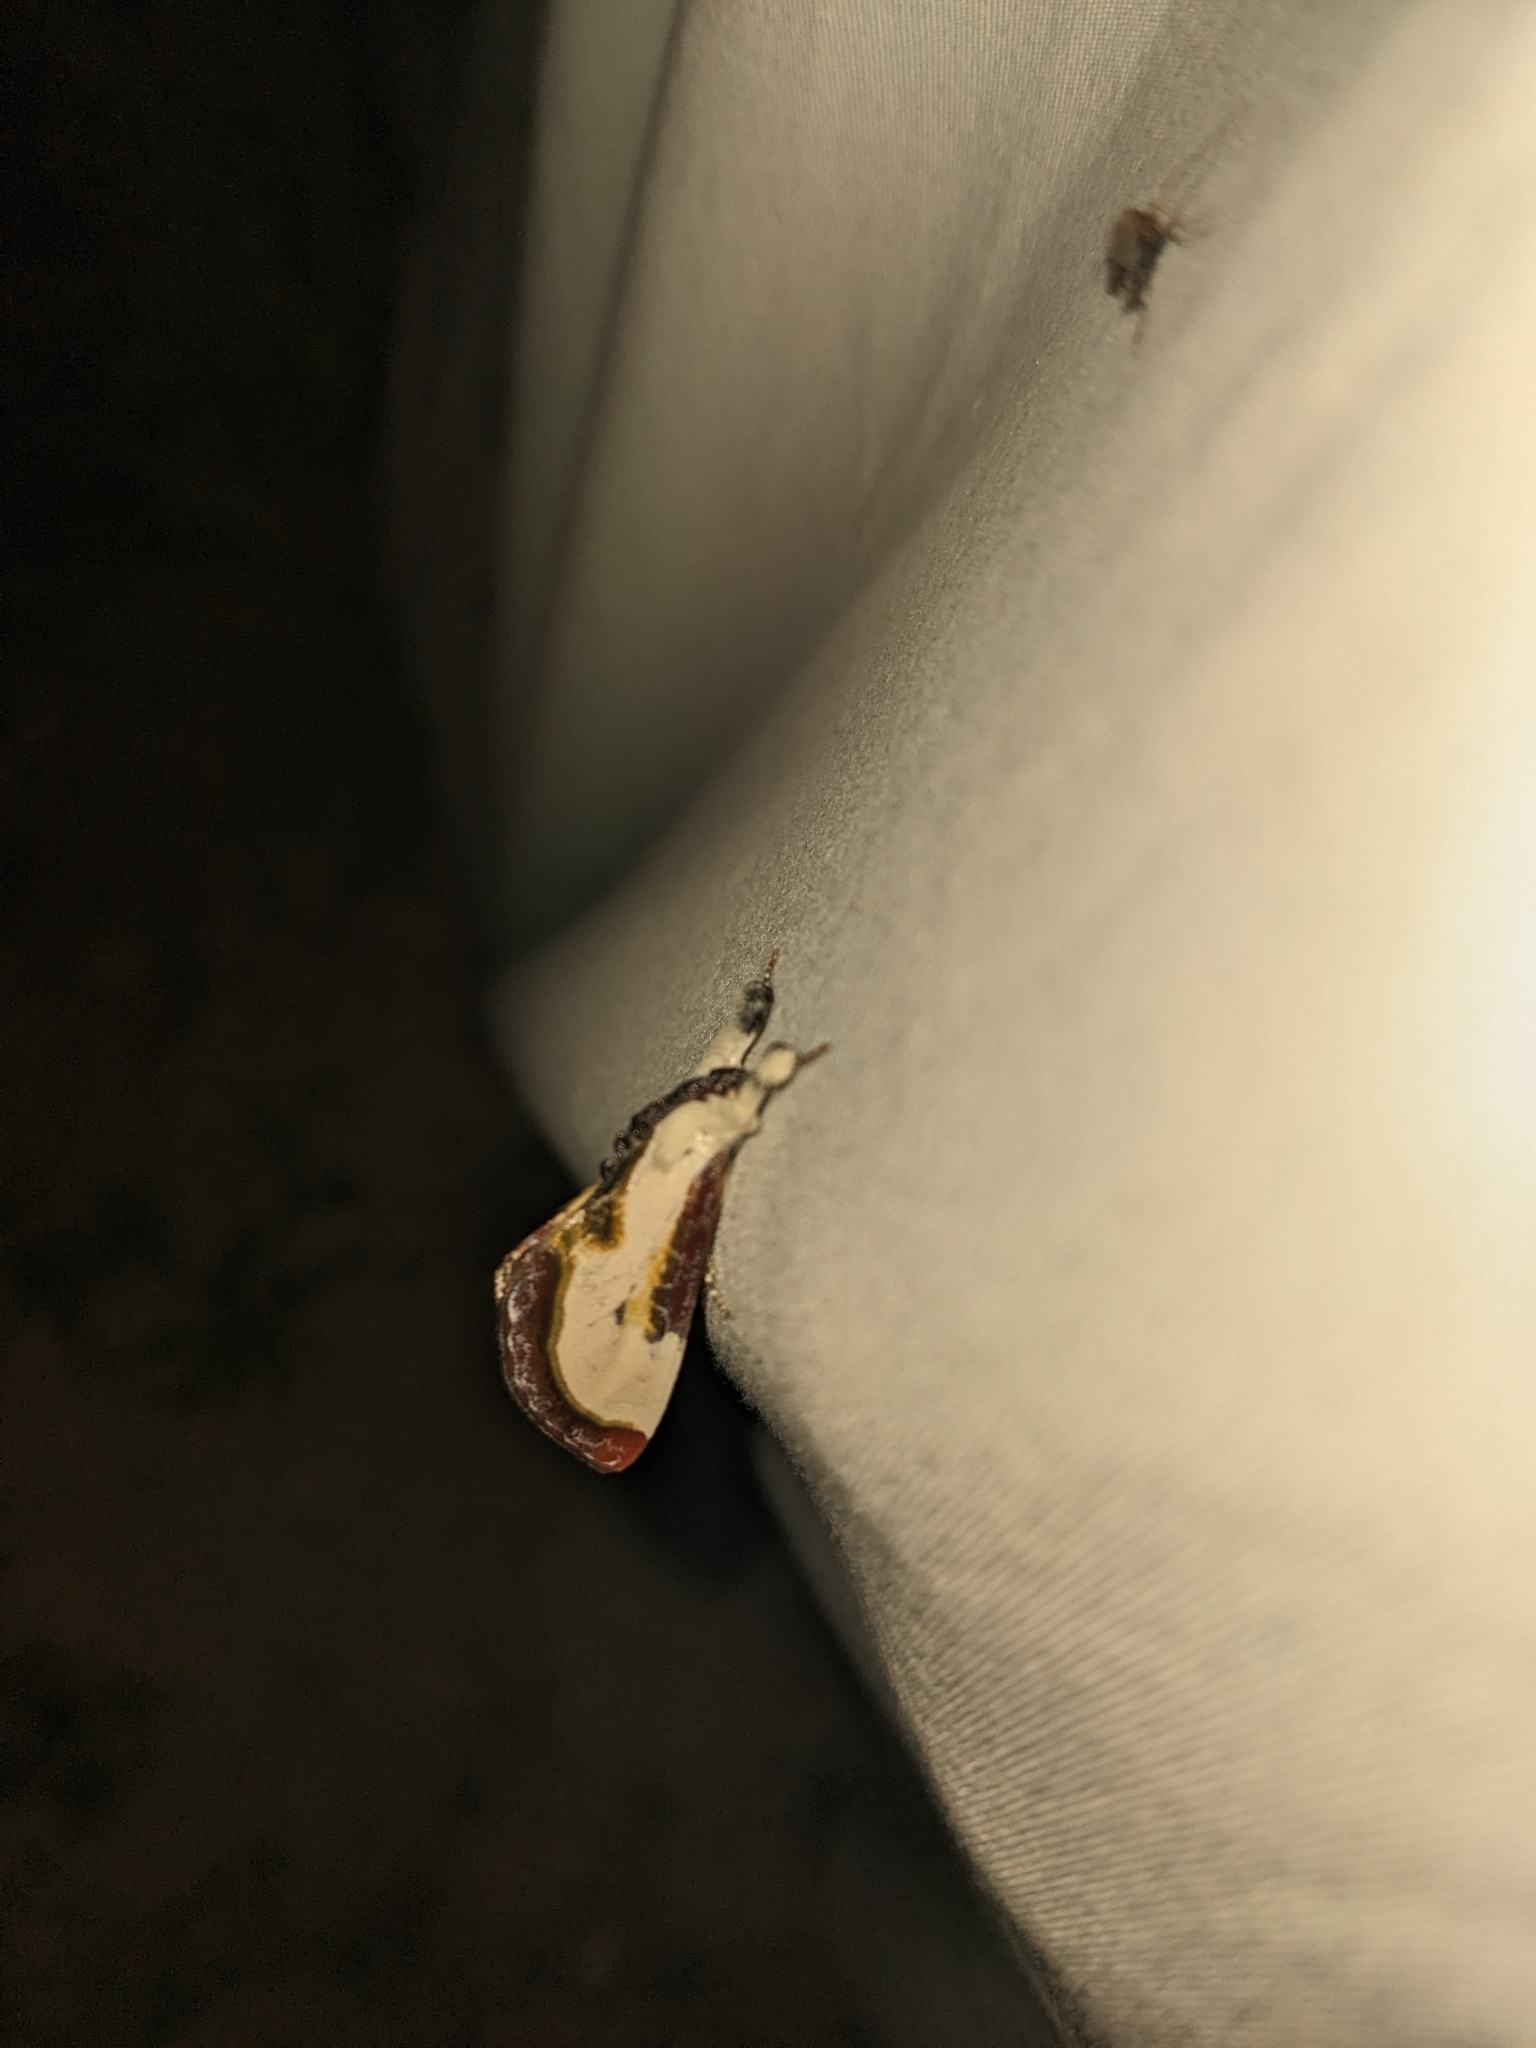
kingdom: Animalia
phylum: Arthropoda
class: Insecta
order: Lepidoptera
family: Noctuidae
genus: Eudryas
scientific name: Eudryas grata
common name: Beautiful wood-nymph
